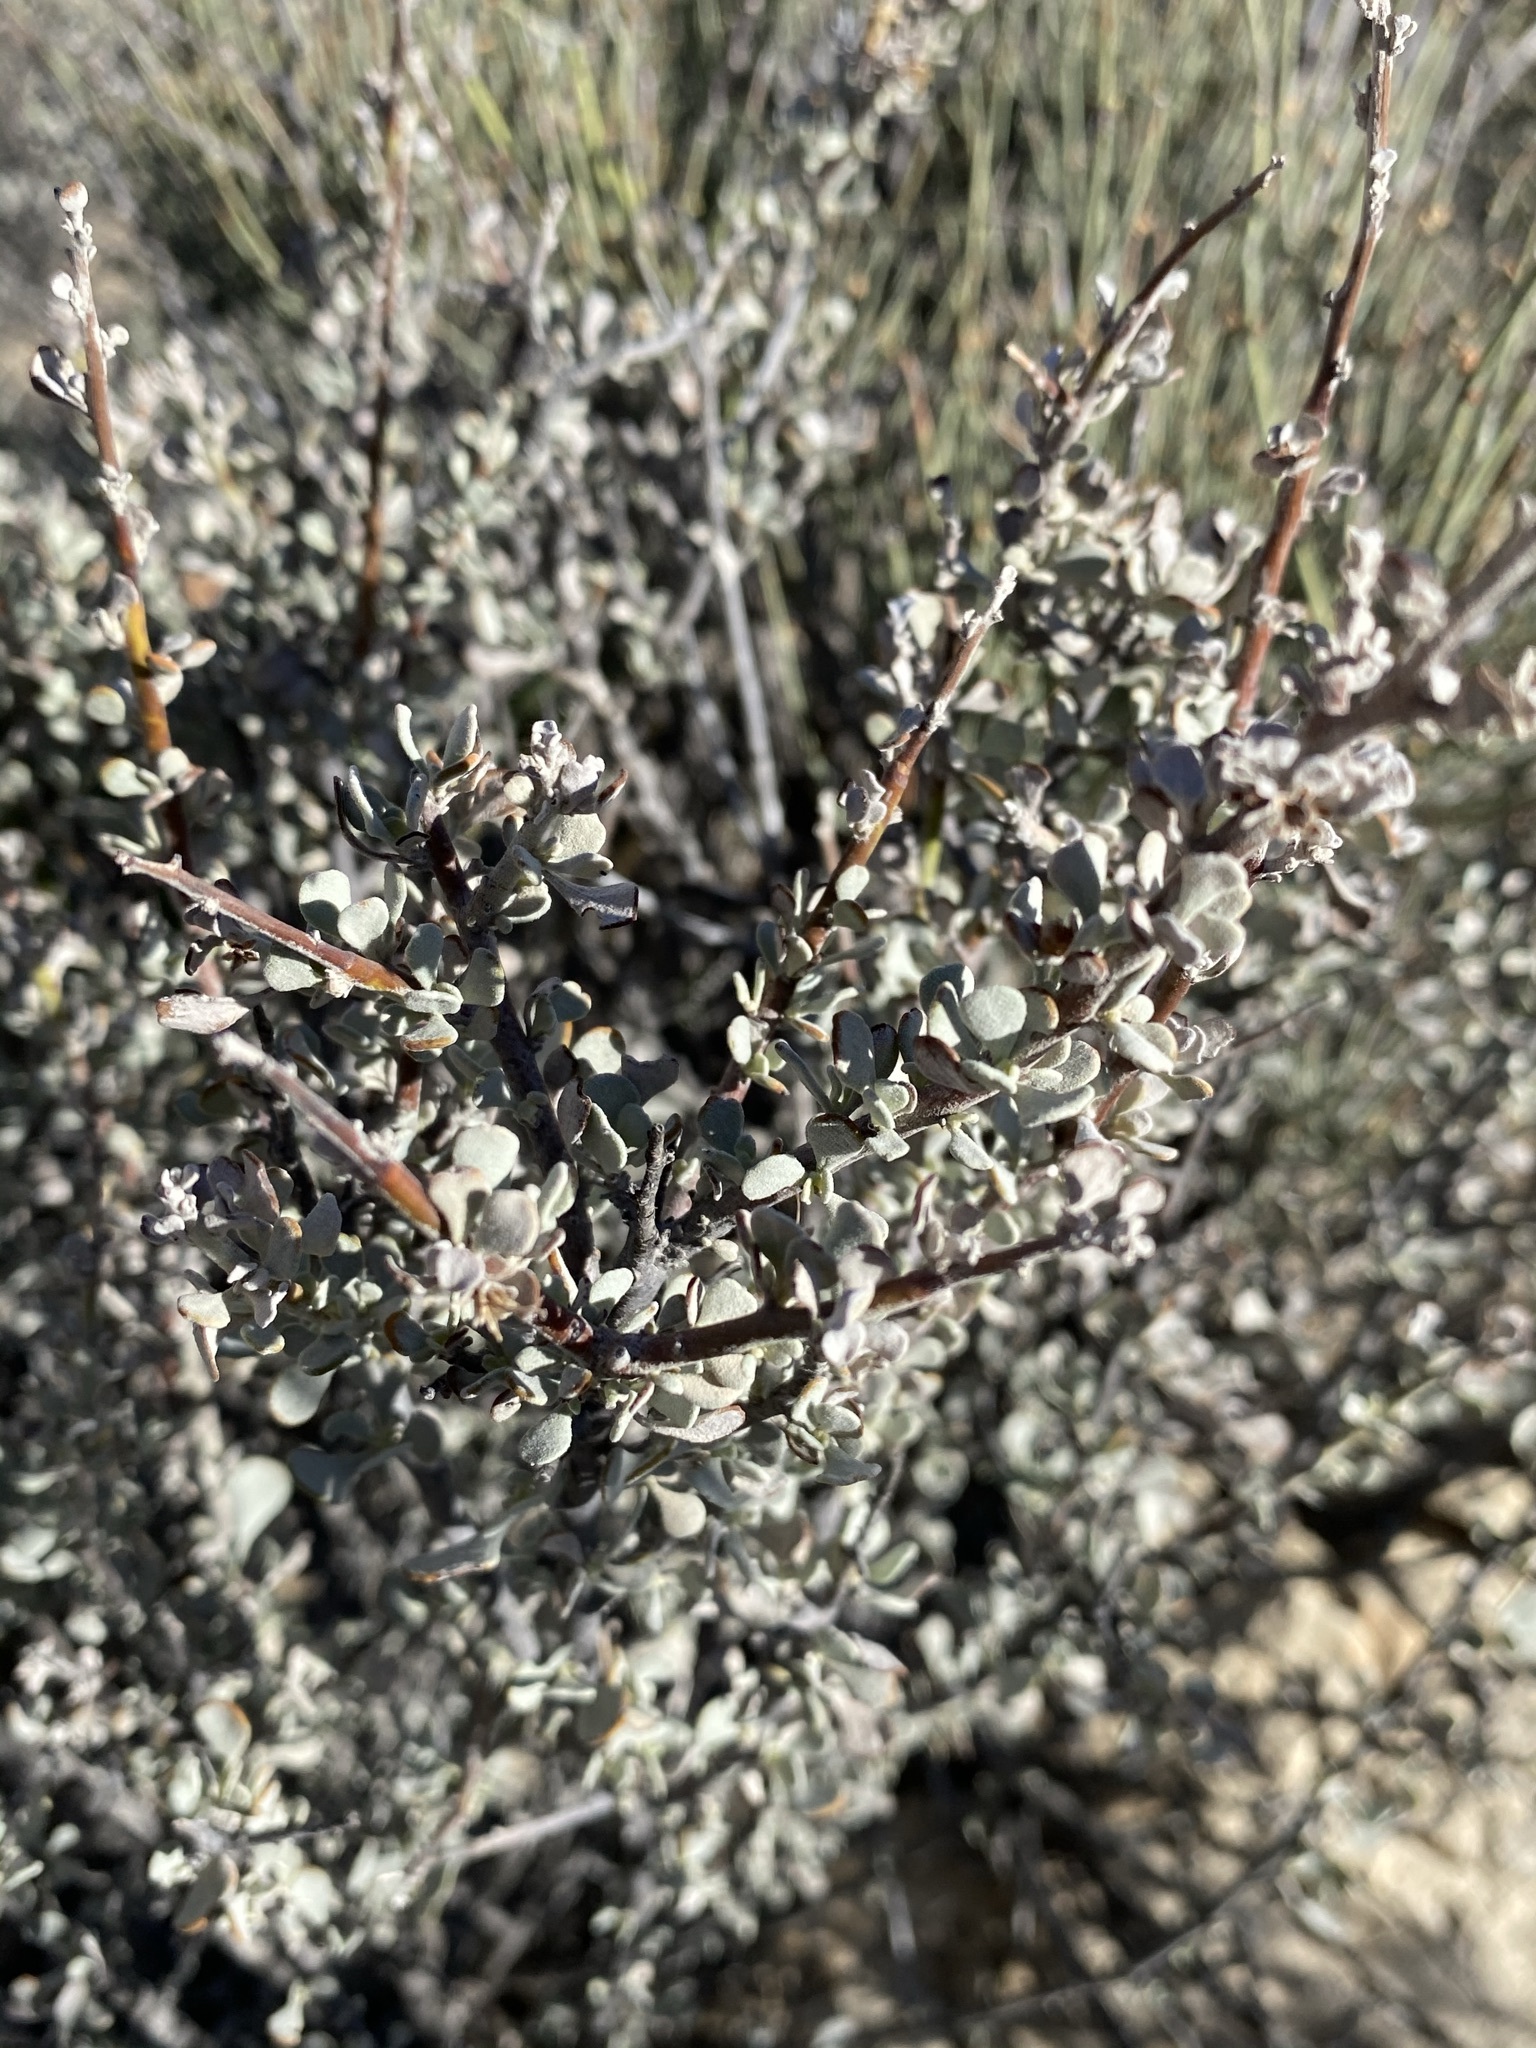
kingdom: Plantae
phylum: Tracheophyta
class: Magnoliopsida
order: Lamiales
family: Scrophulariaceae
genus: Leucophyllum
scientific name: Leucophyllum minus
